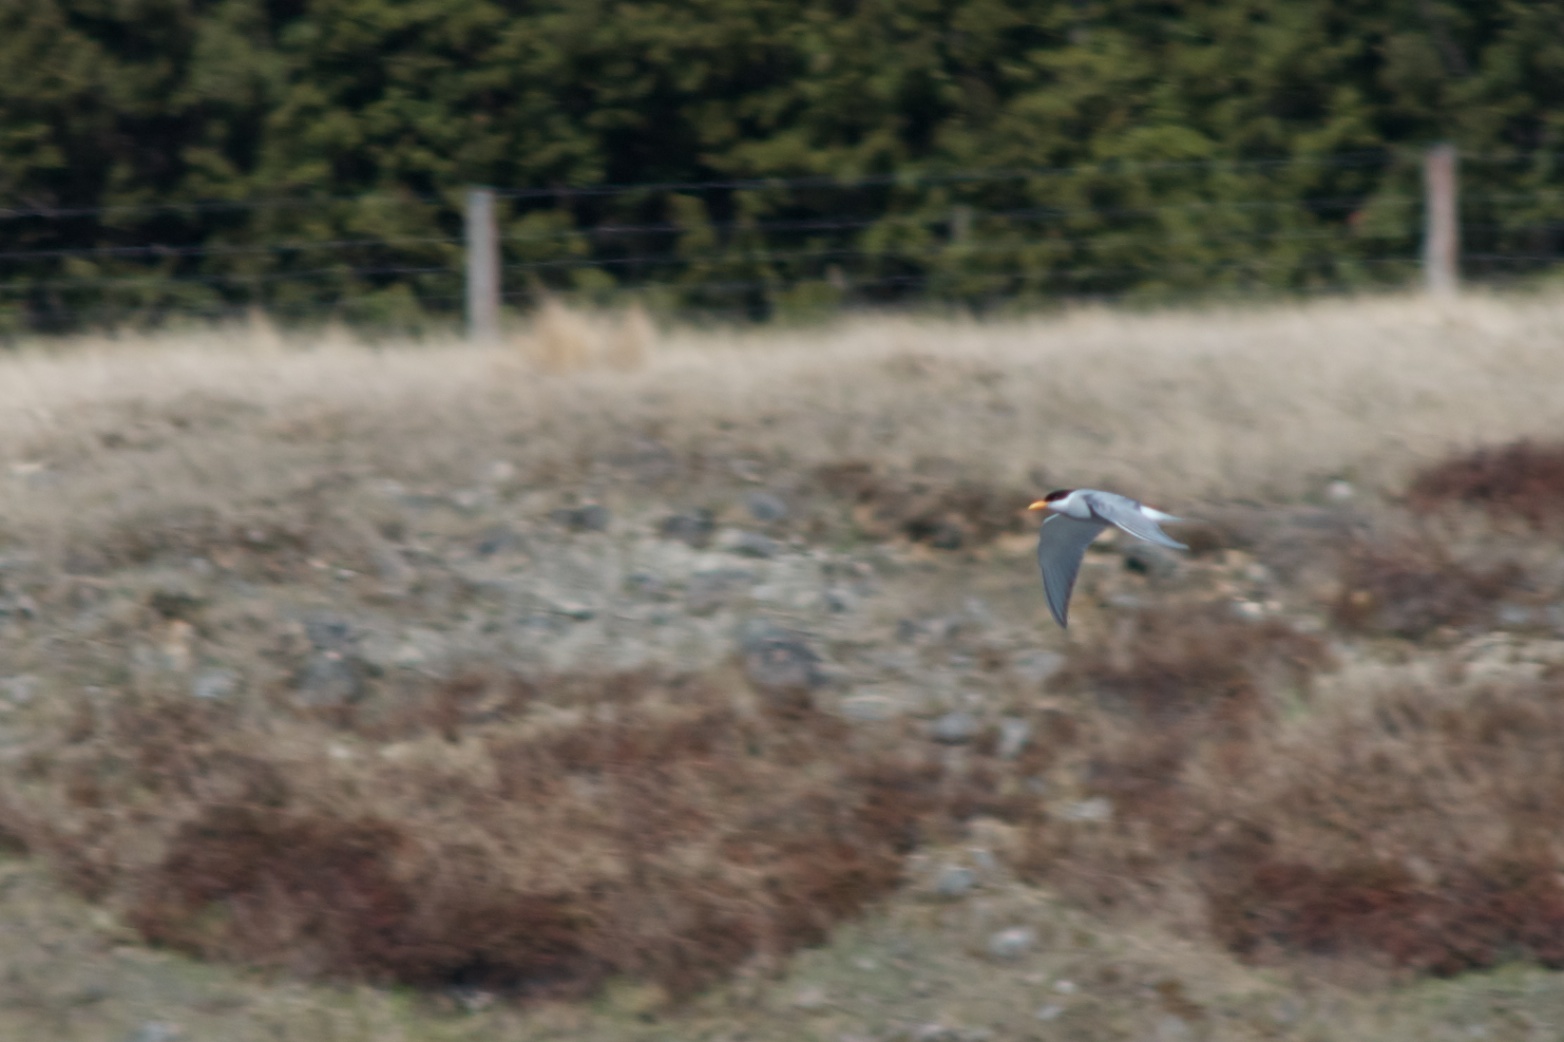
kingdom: Animalia
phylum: Chordata
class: Aves
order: Charadriiformes
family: Laridae
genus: Chlidonias
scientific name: Chlidonias albostriatus
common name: Black-fronted tern
